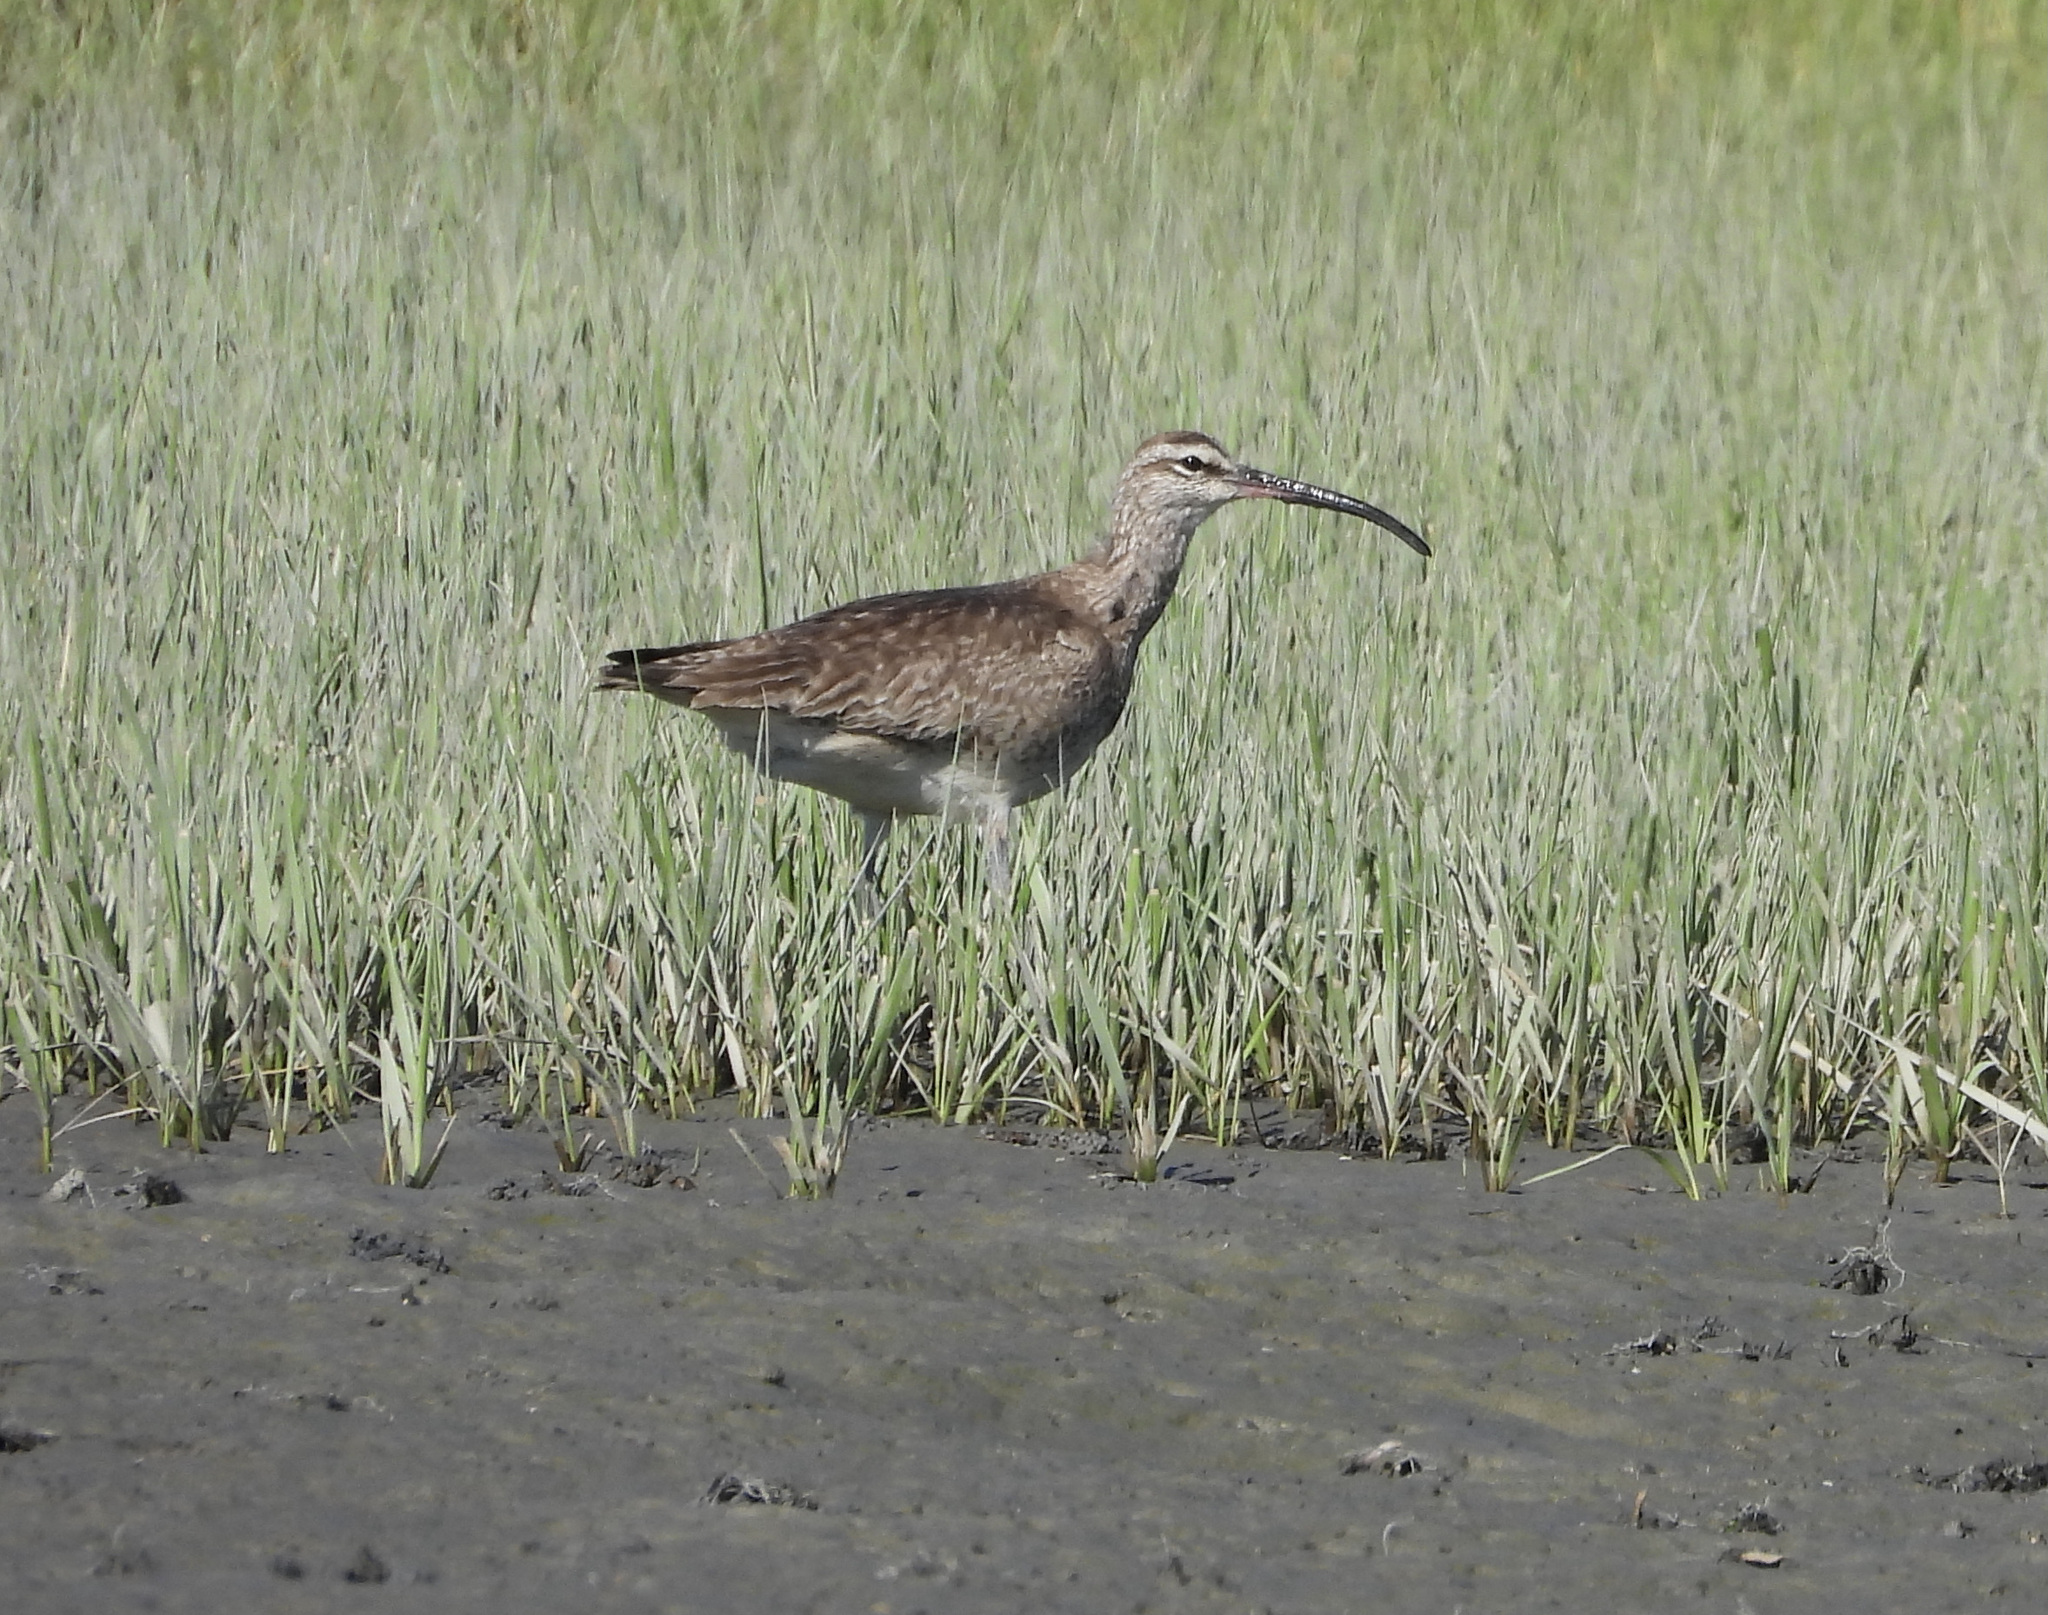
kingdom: Animalia
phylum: Chordata
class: Aves
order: Charadriiformes
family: Scolopacidae
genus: Numenius
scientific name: Numenius phaeopus
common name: Whimbrel
